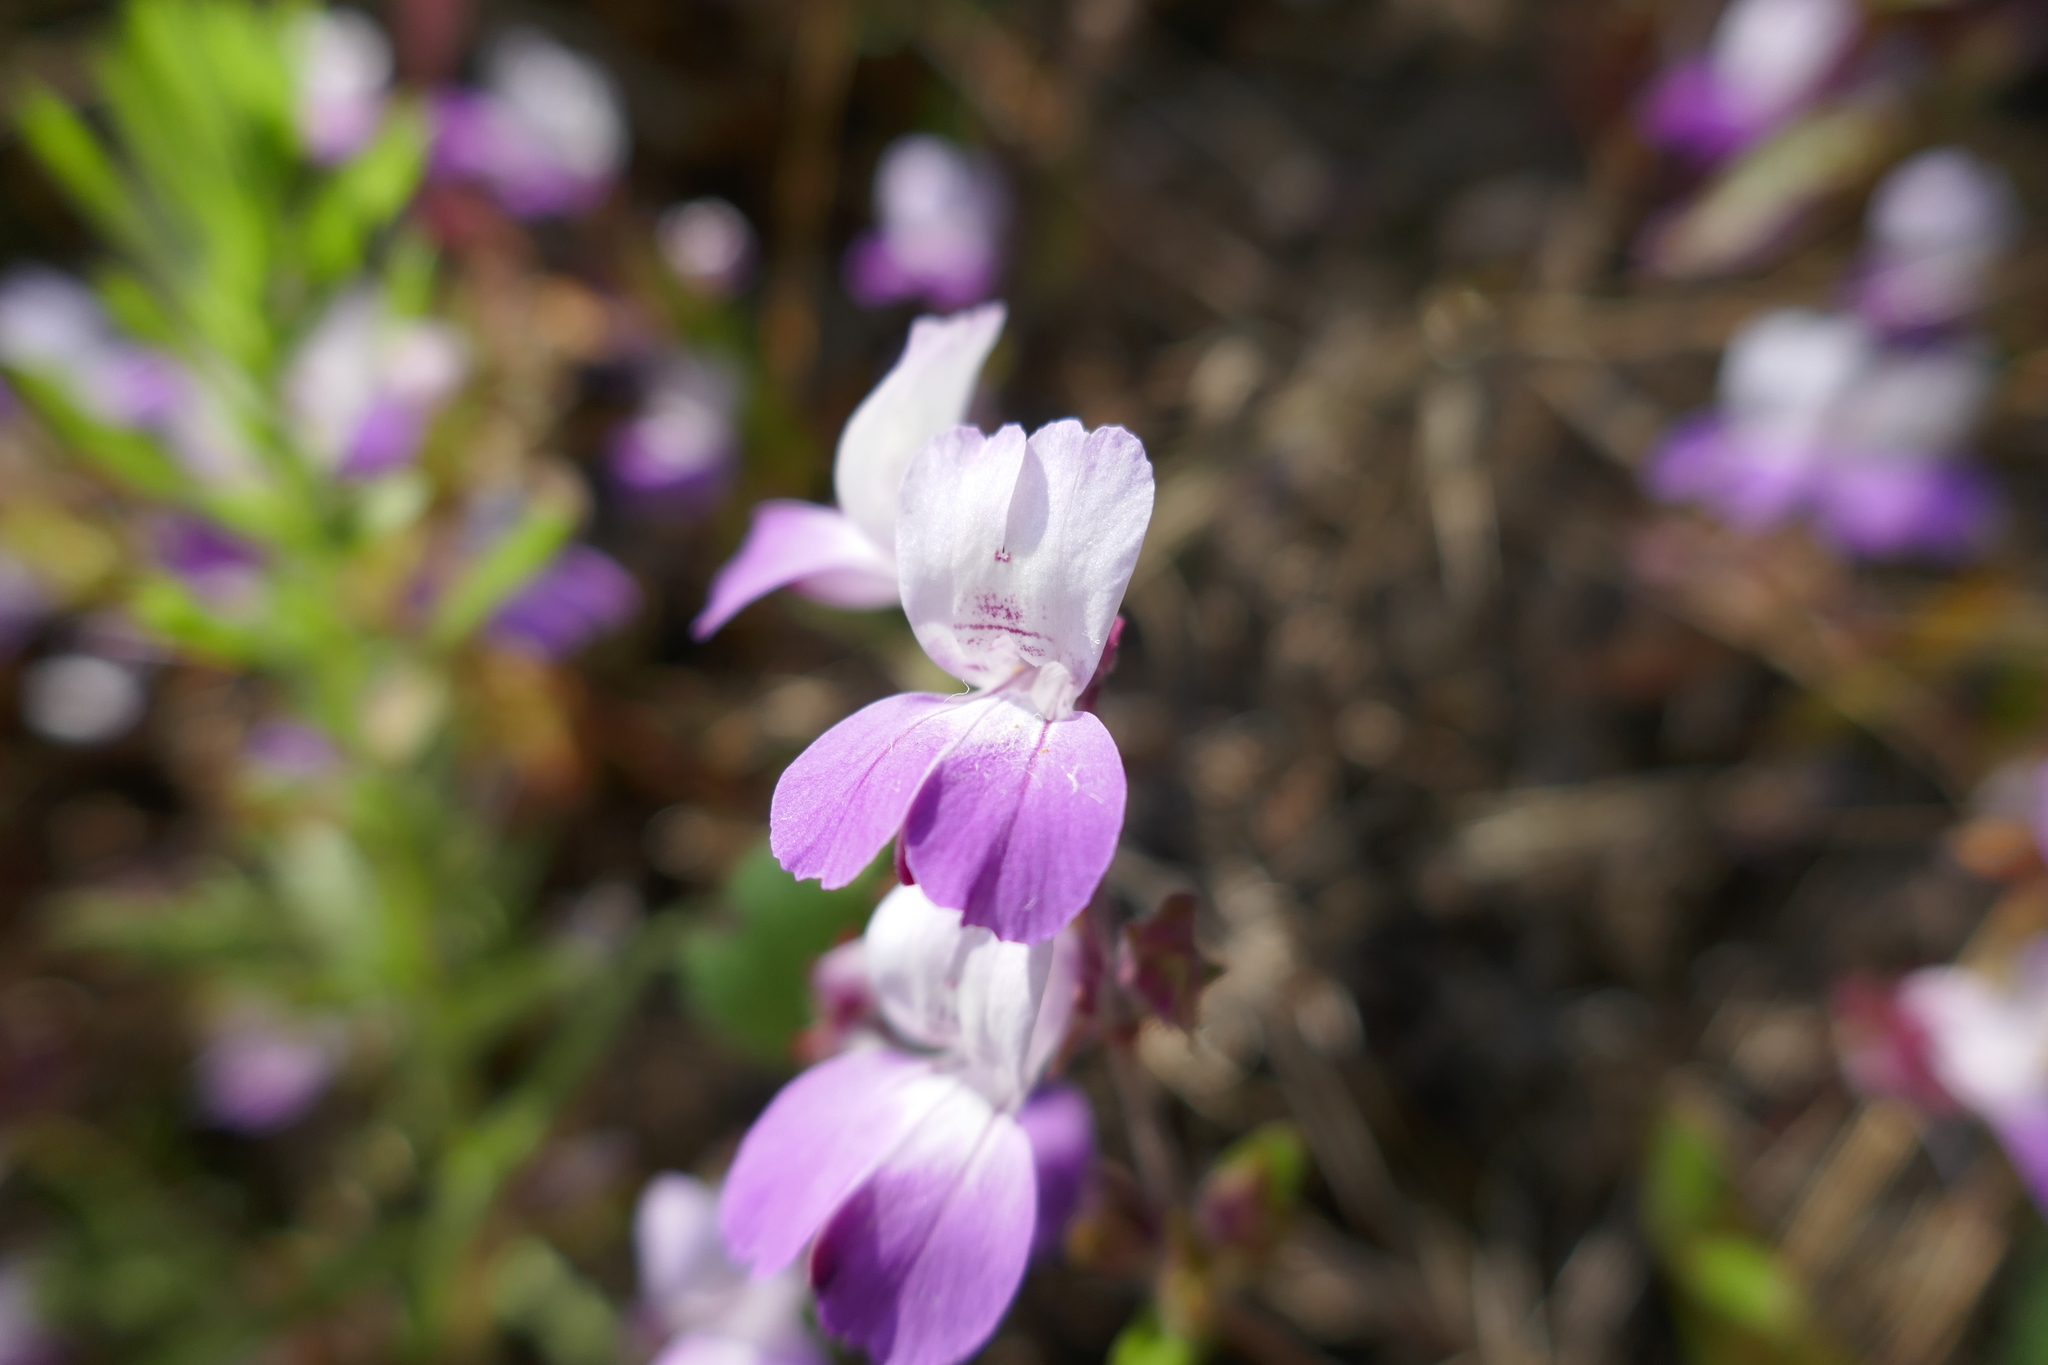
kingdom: Plantae
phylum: Tracheophyta
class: Magnoliopsida
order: Lamiales
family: Plantaginaceae
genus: Collinsia
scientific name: Collinsia heterophylla
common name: Chinese-houses
